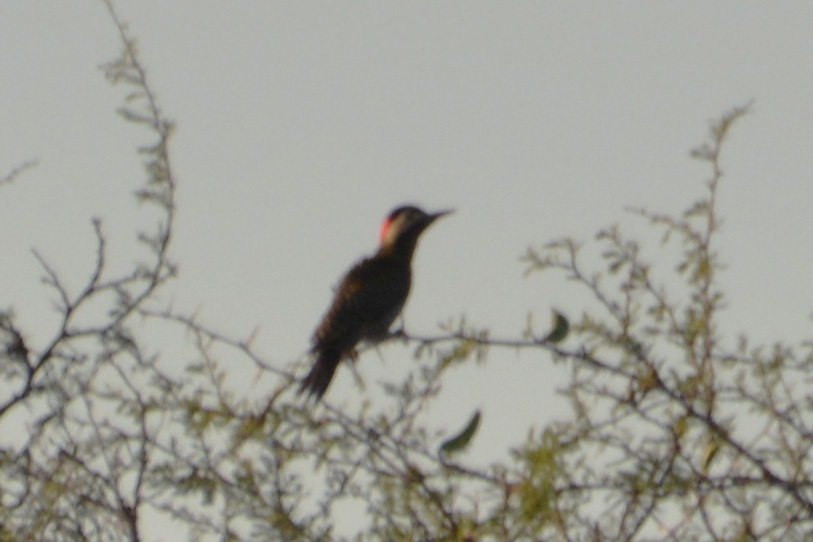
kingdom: Animalia
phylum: Chordata
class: Aves
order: Piciformes
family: Picidae
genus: Colaptes
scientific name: Colaptes melanochloros
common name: Green-barred woodpecker
